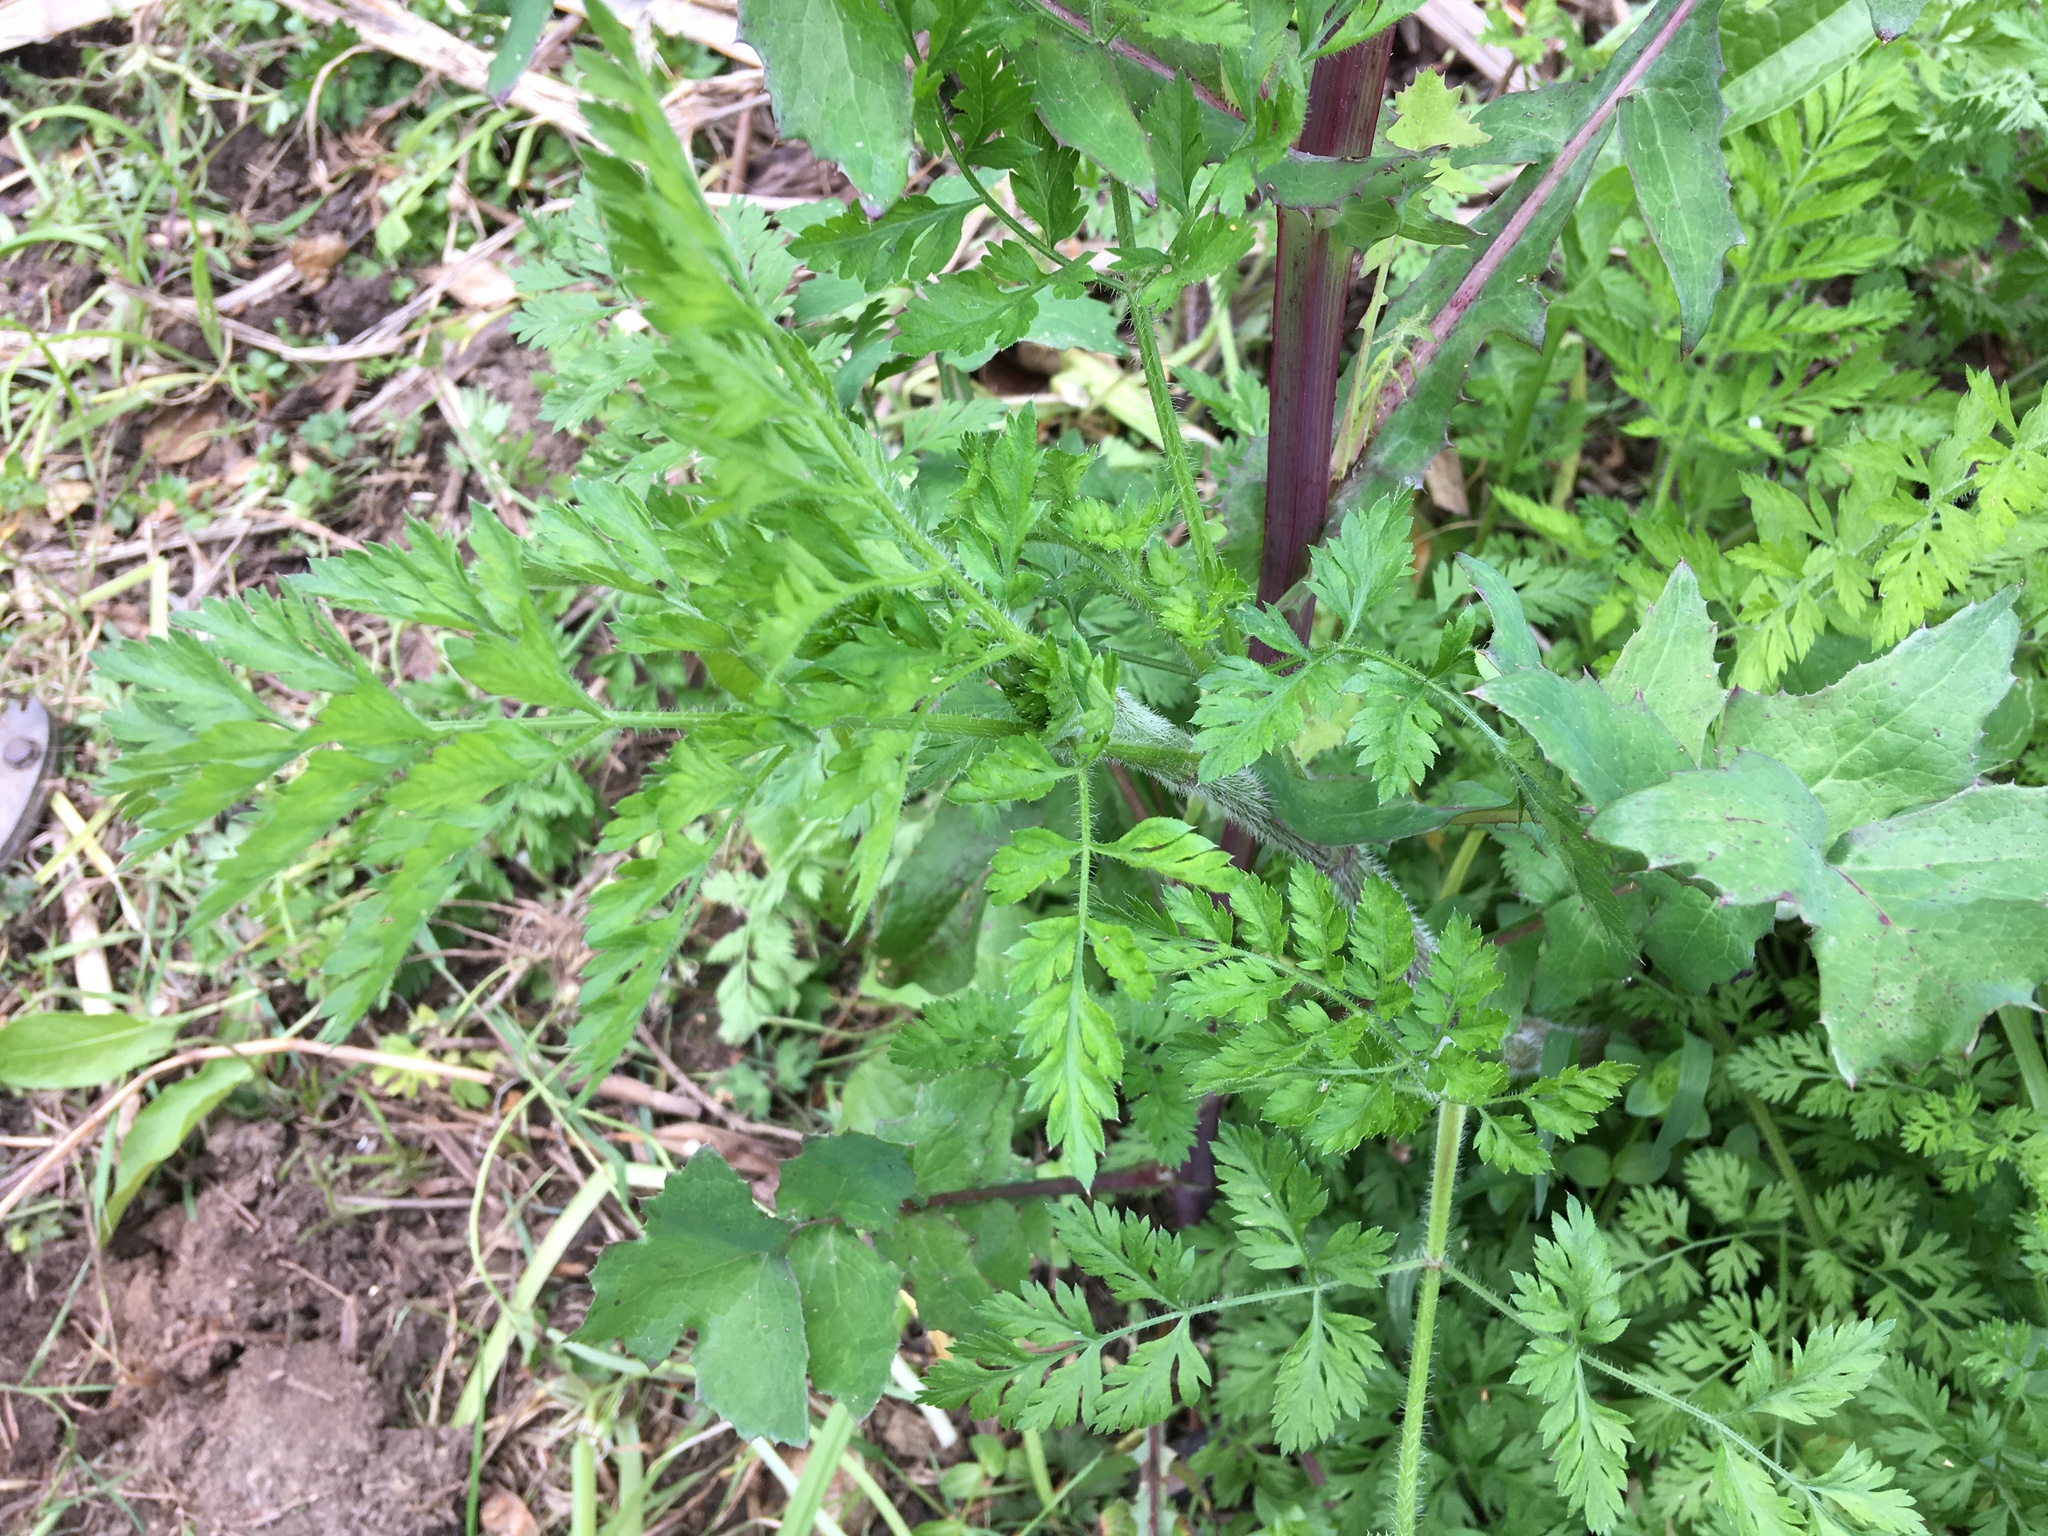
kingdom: Plantae
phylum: Tracheophyta
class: Magnoliopsida
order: Apiales
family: Apiaceae
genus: Daucus
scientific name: Daucus carota
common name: Wild carrot
